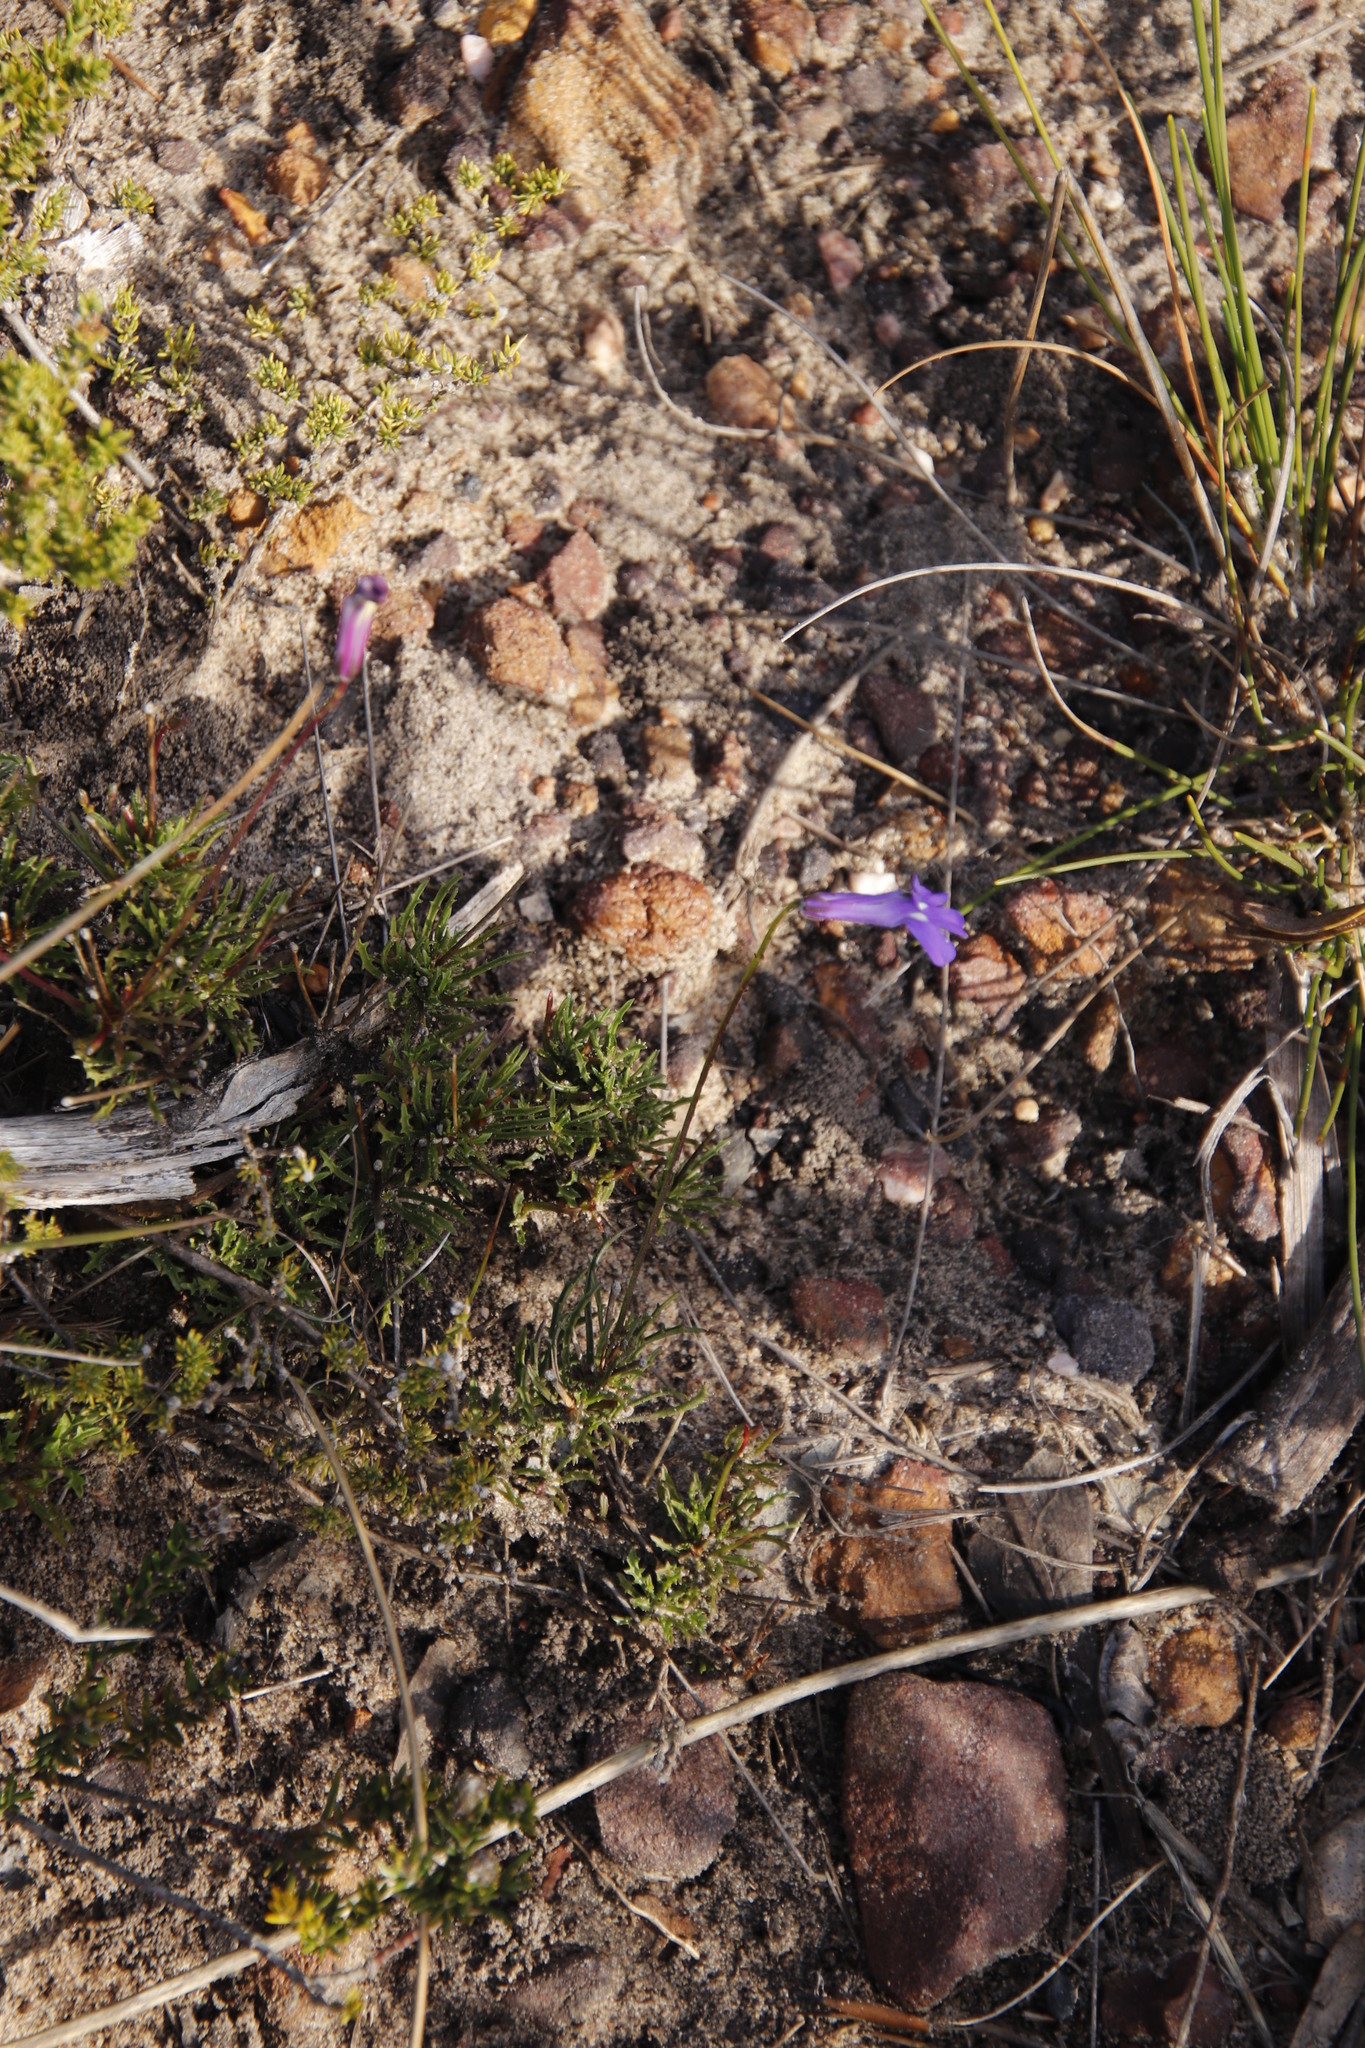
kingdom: Plantae
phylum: Tracheophyta
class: Magnoliopsida
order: Asterales
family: Campanulaceae
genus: Lobelia
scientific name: Lobelia coronopifolia
